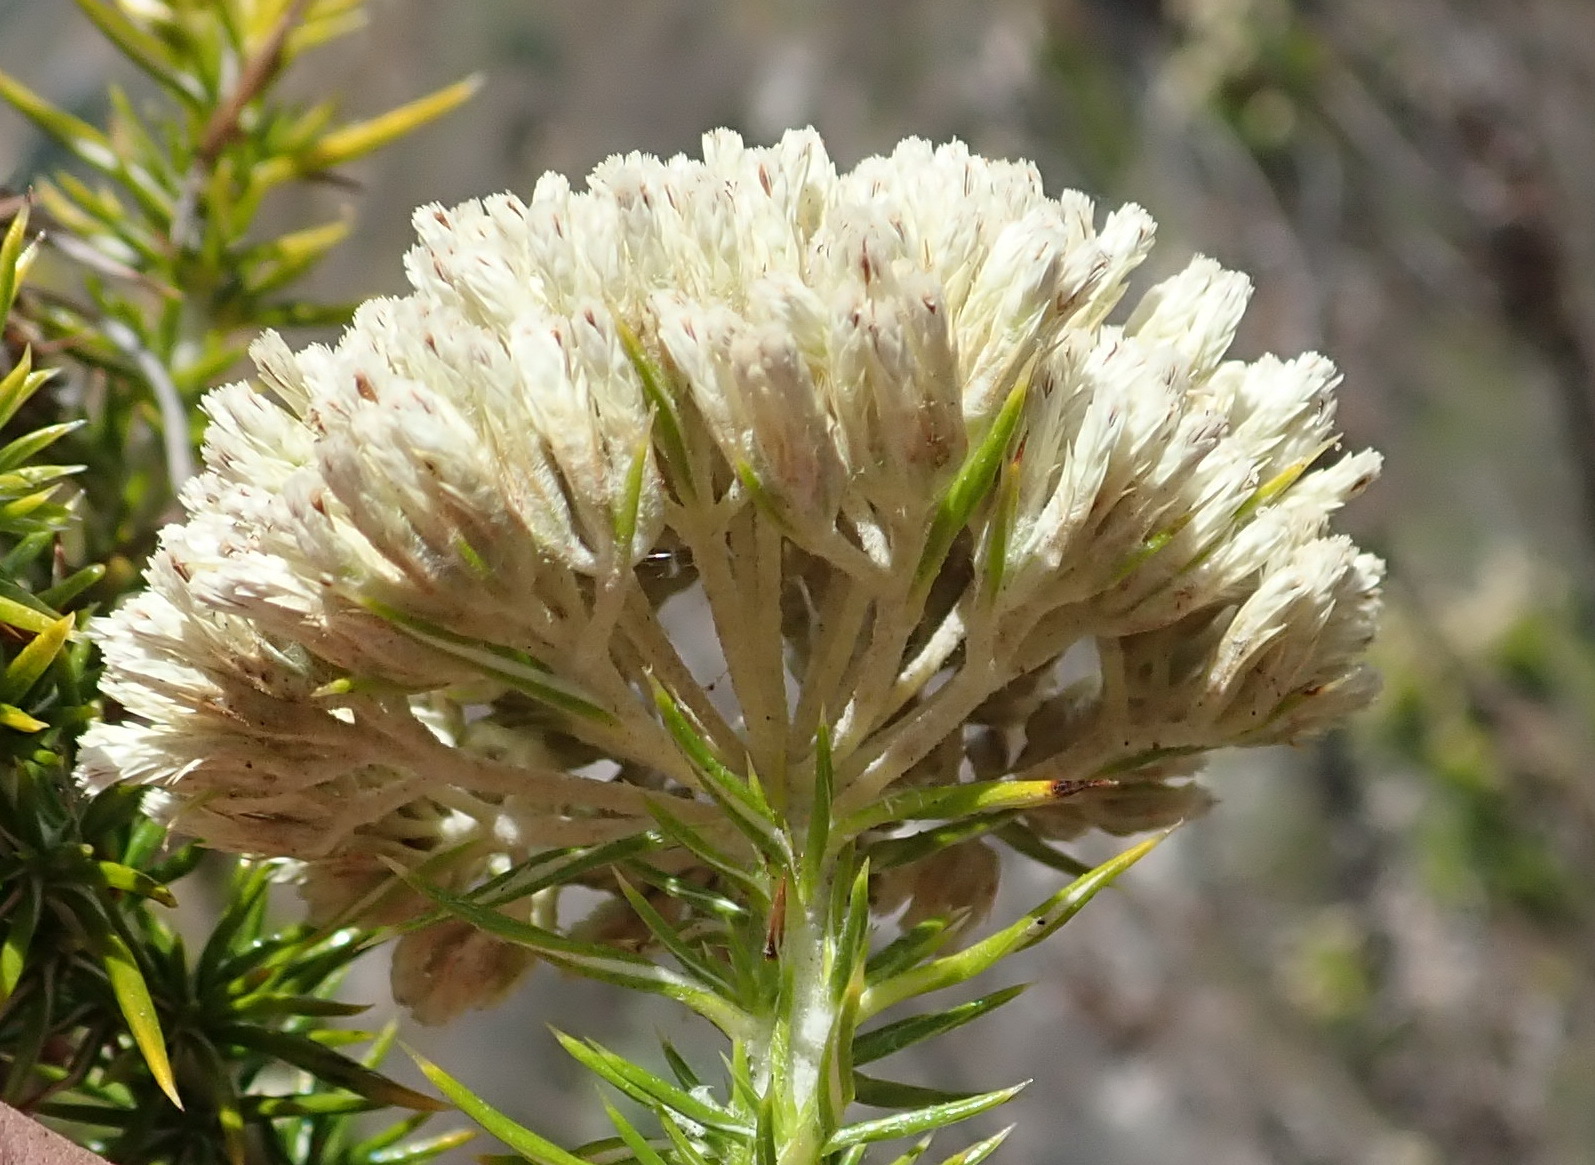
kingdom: Plantae
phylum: Tracheophyta
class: Magnoliopsida
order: Asterales
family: Asteraceae
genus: Metalasia
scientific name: Metalasia trivialis
